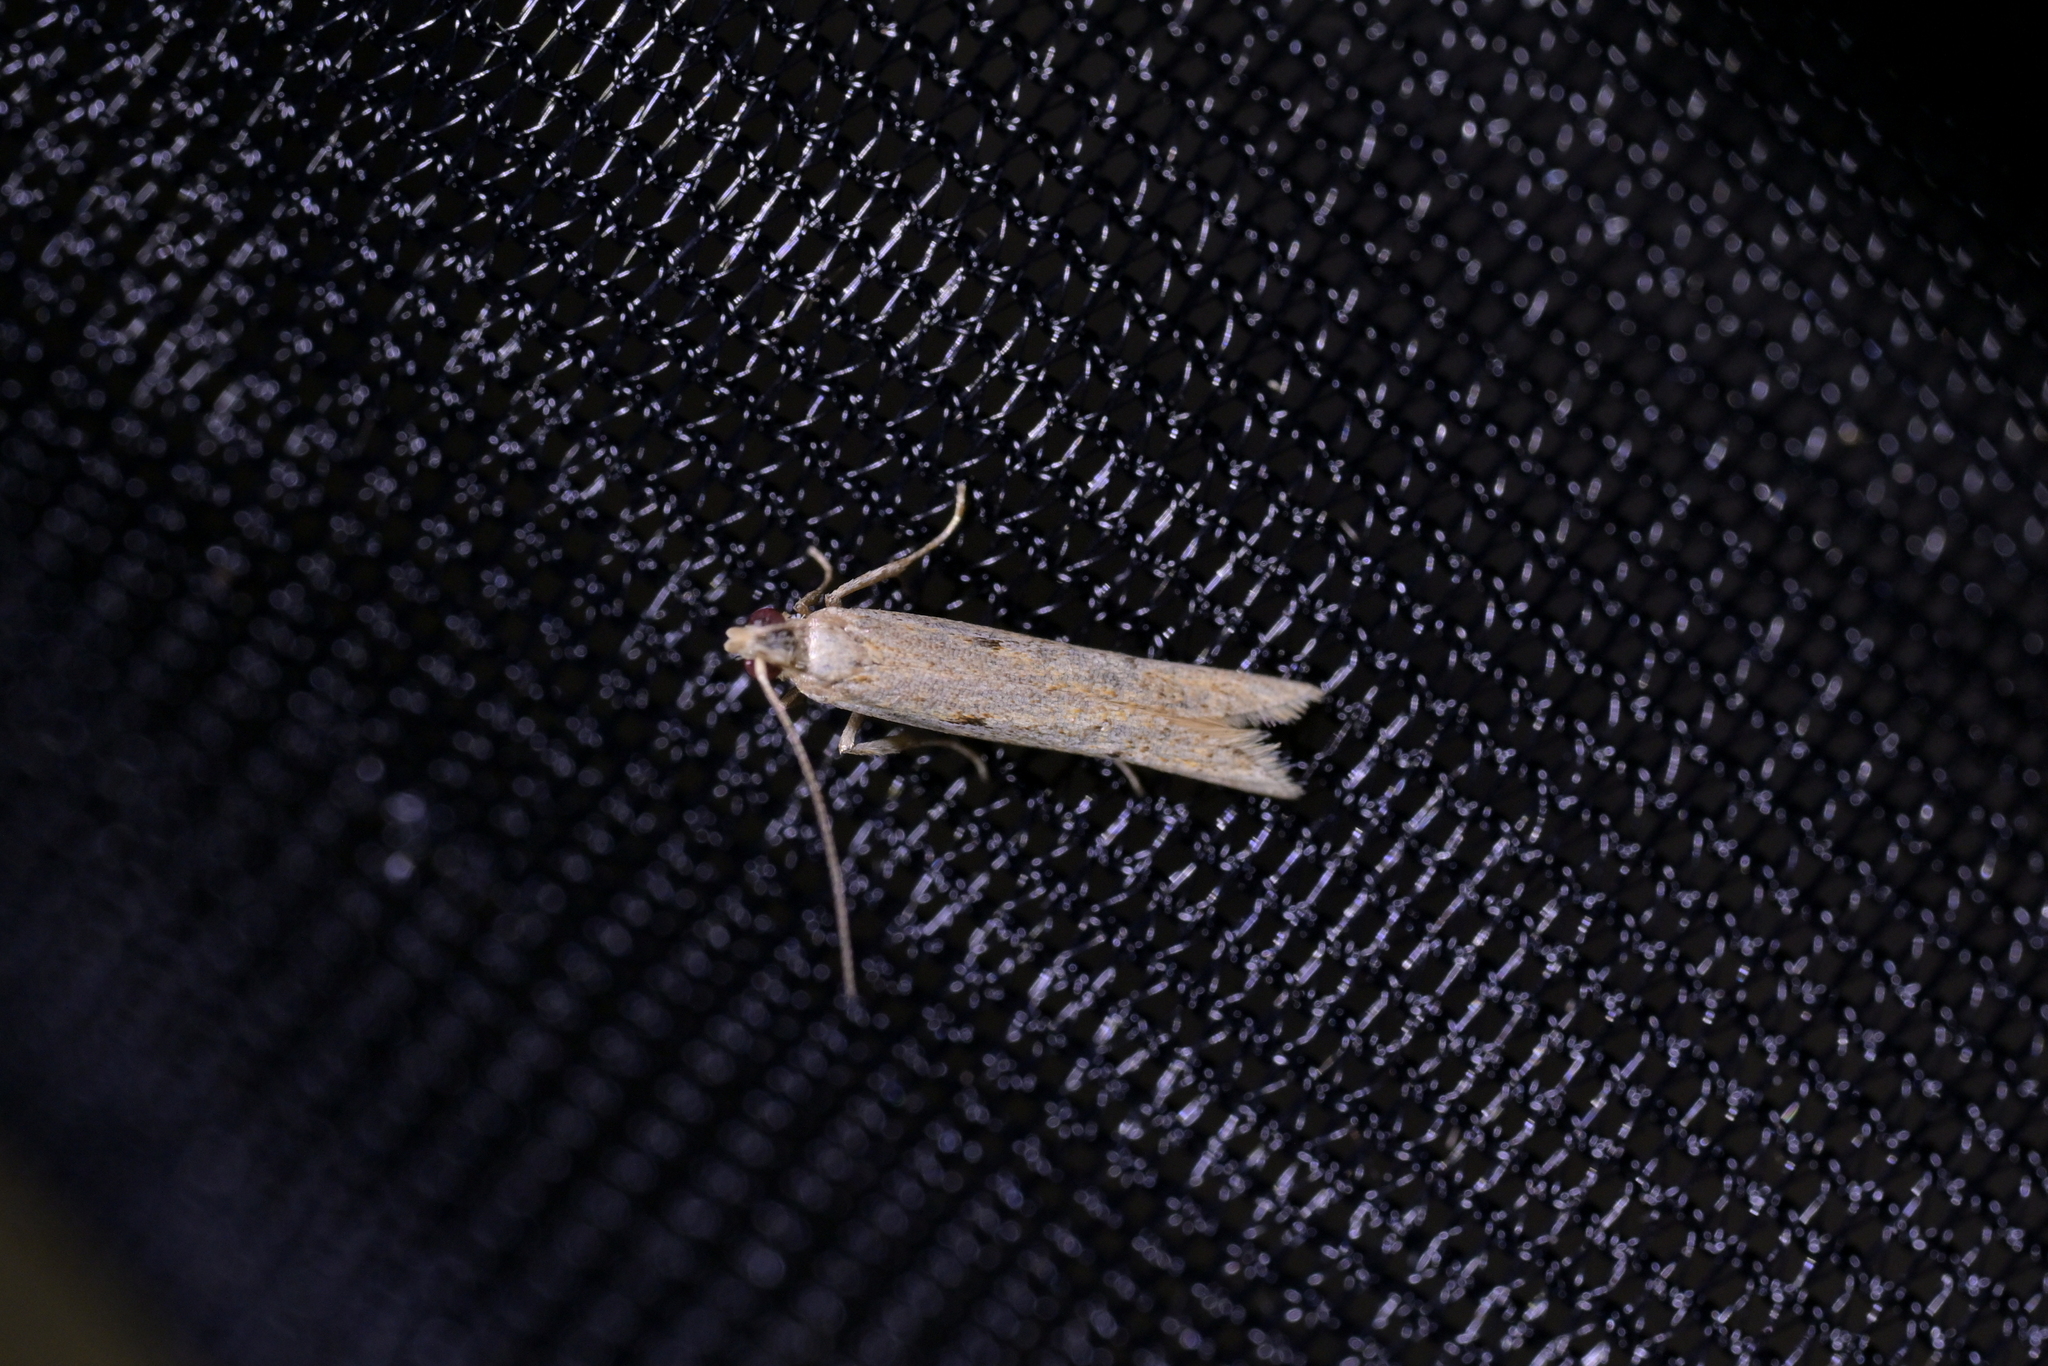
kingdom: Animalia
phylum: Arthropoda
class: Insecta
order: Lepidoptera
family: Depressariidae
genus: Eutorna
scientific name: Eutorna inornata
